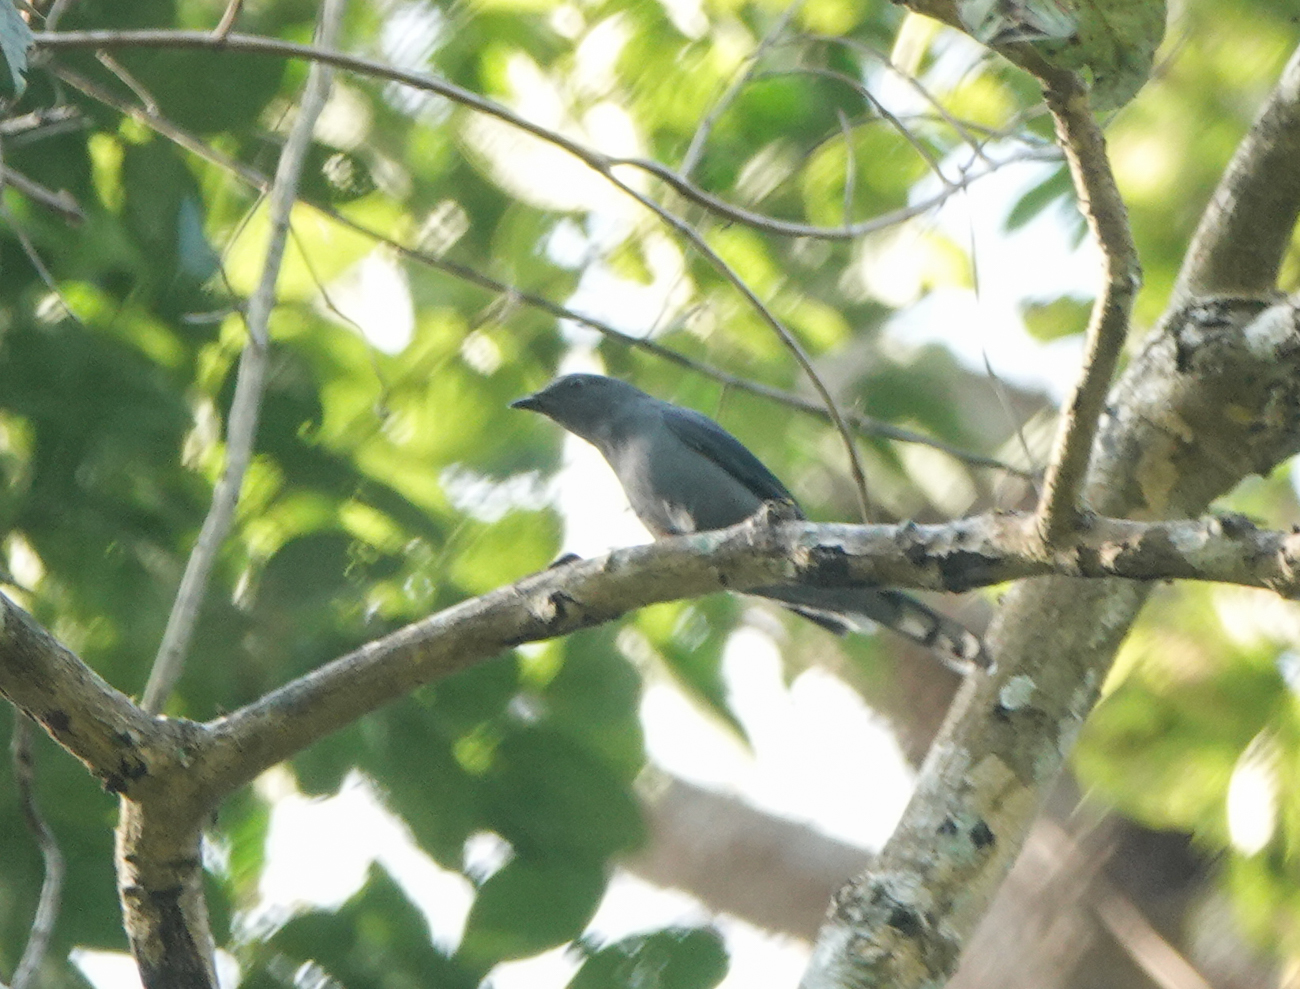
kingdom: Animalia
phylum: Chordata
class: Aves
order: Passeriformes
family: Campephagidae
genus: Coracina
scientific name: Coracina melaschistos
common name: Black-winged cuckooshrike
